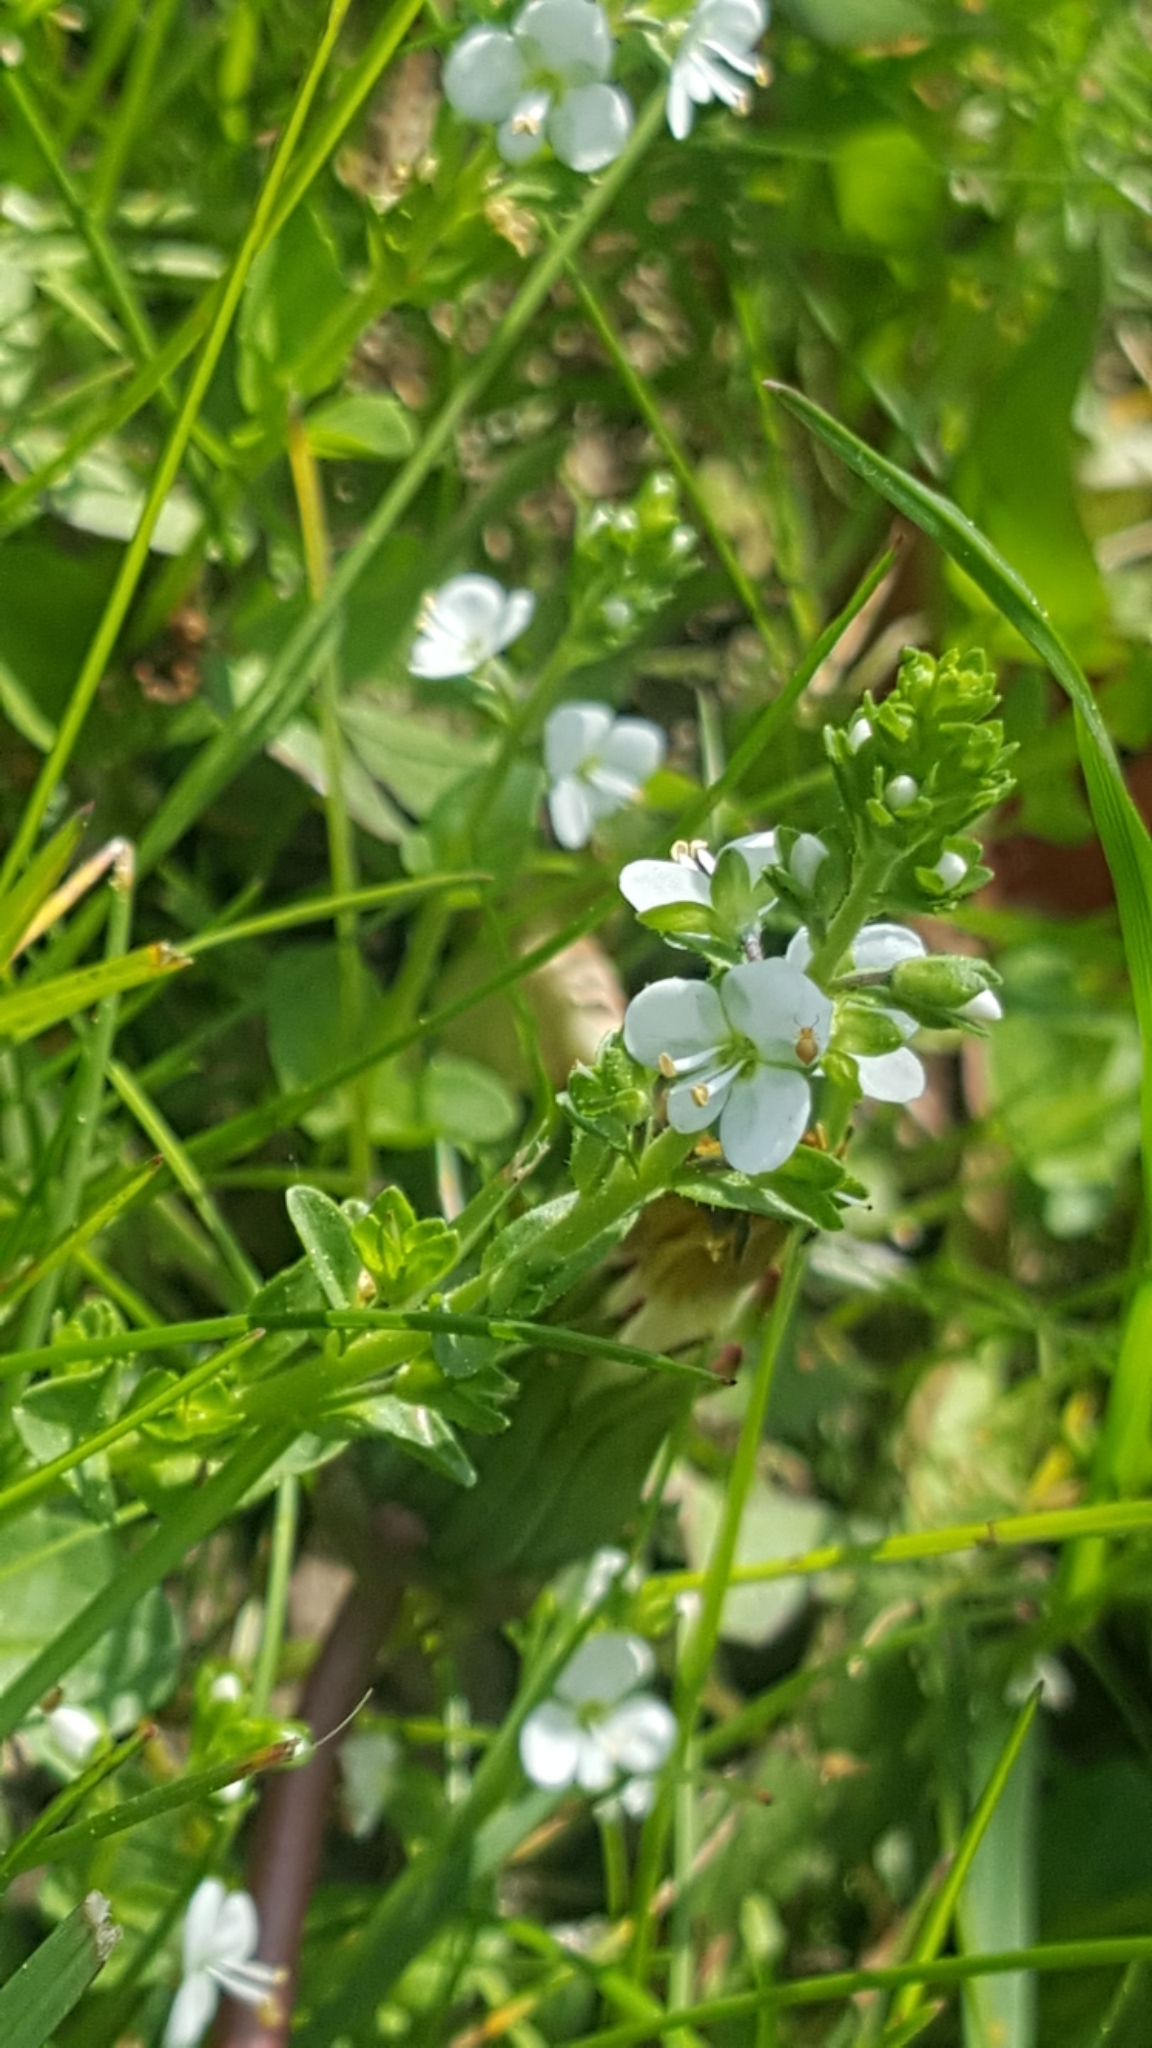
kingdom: Plantae
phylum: Tracheophyta
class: Magnoliopsida
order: Lamiales
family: Plantaginaceae
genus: Veronica
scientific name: Veronica serpyllifolia
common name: Thyme-leaved speedwell
